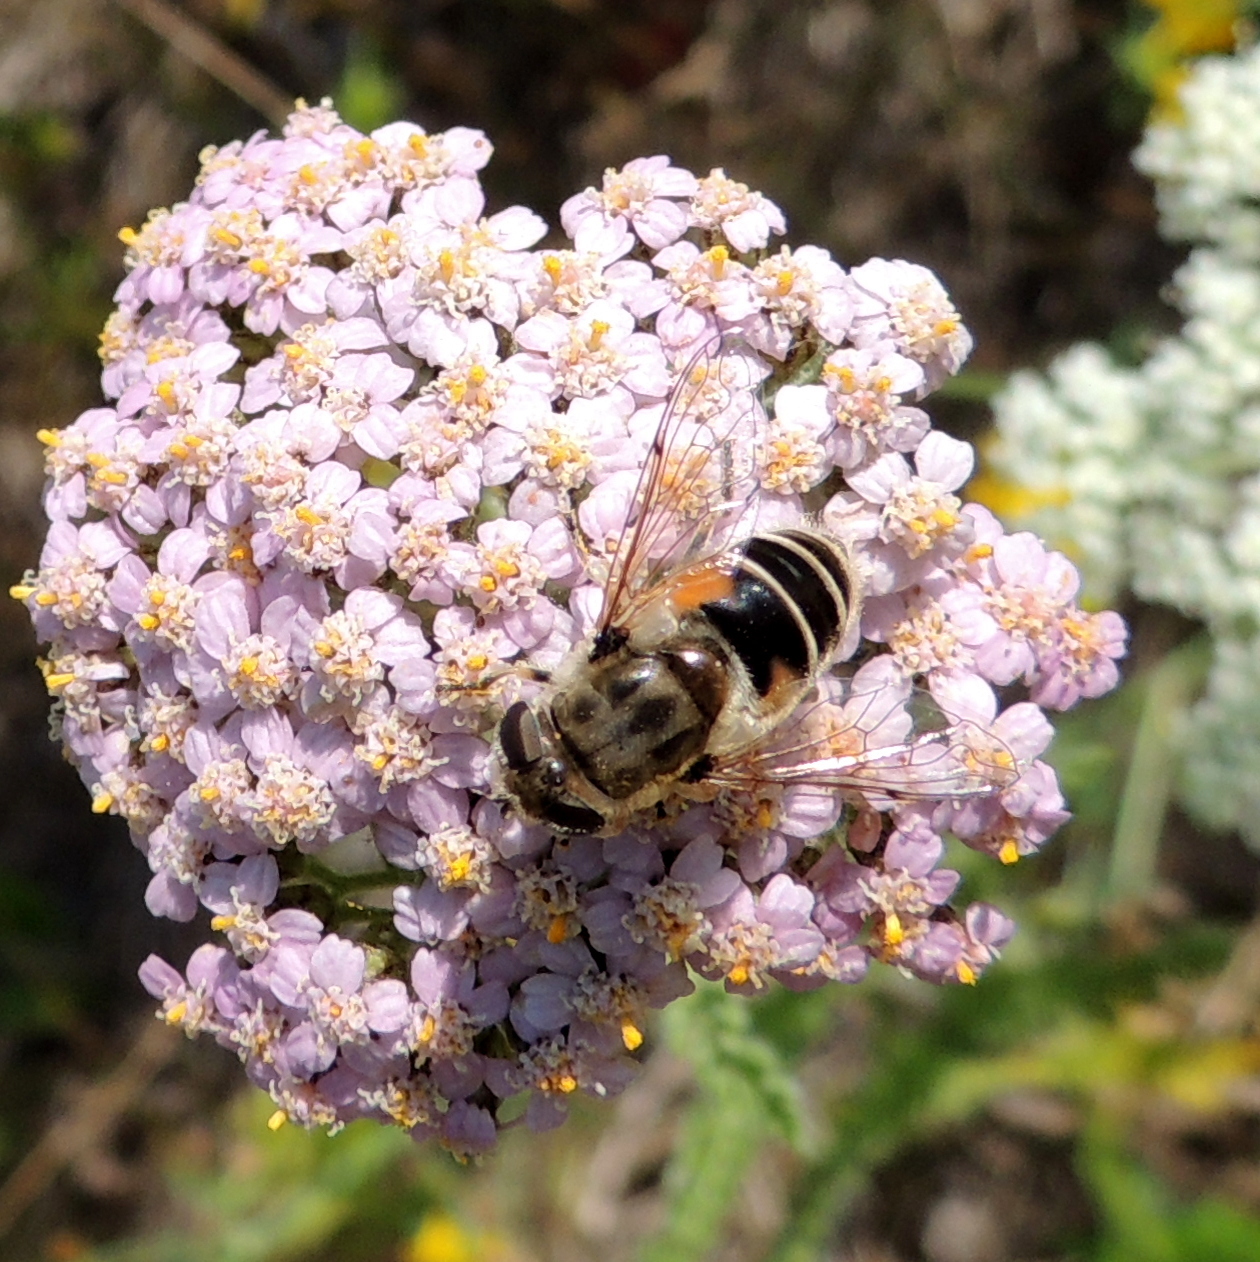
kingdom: Animalia
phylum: Arthropoda
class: Insecta
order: Diptera
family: Syrphidae
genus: Eristalis
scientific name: Eristalis arbustorum
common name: Hover fly
